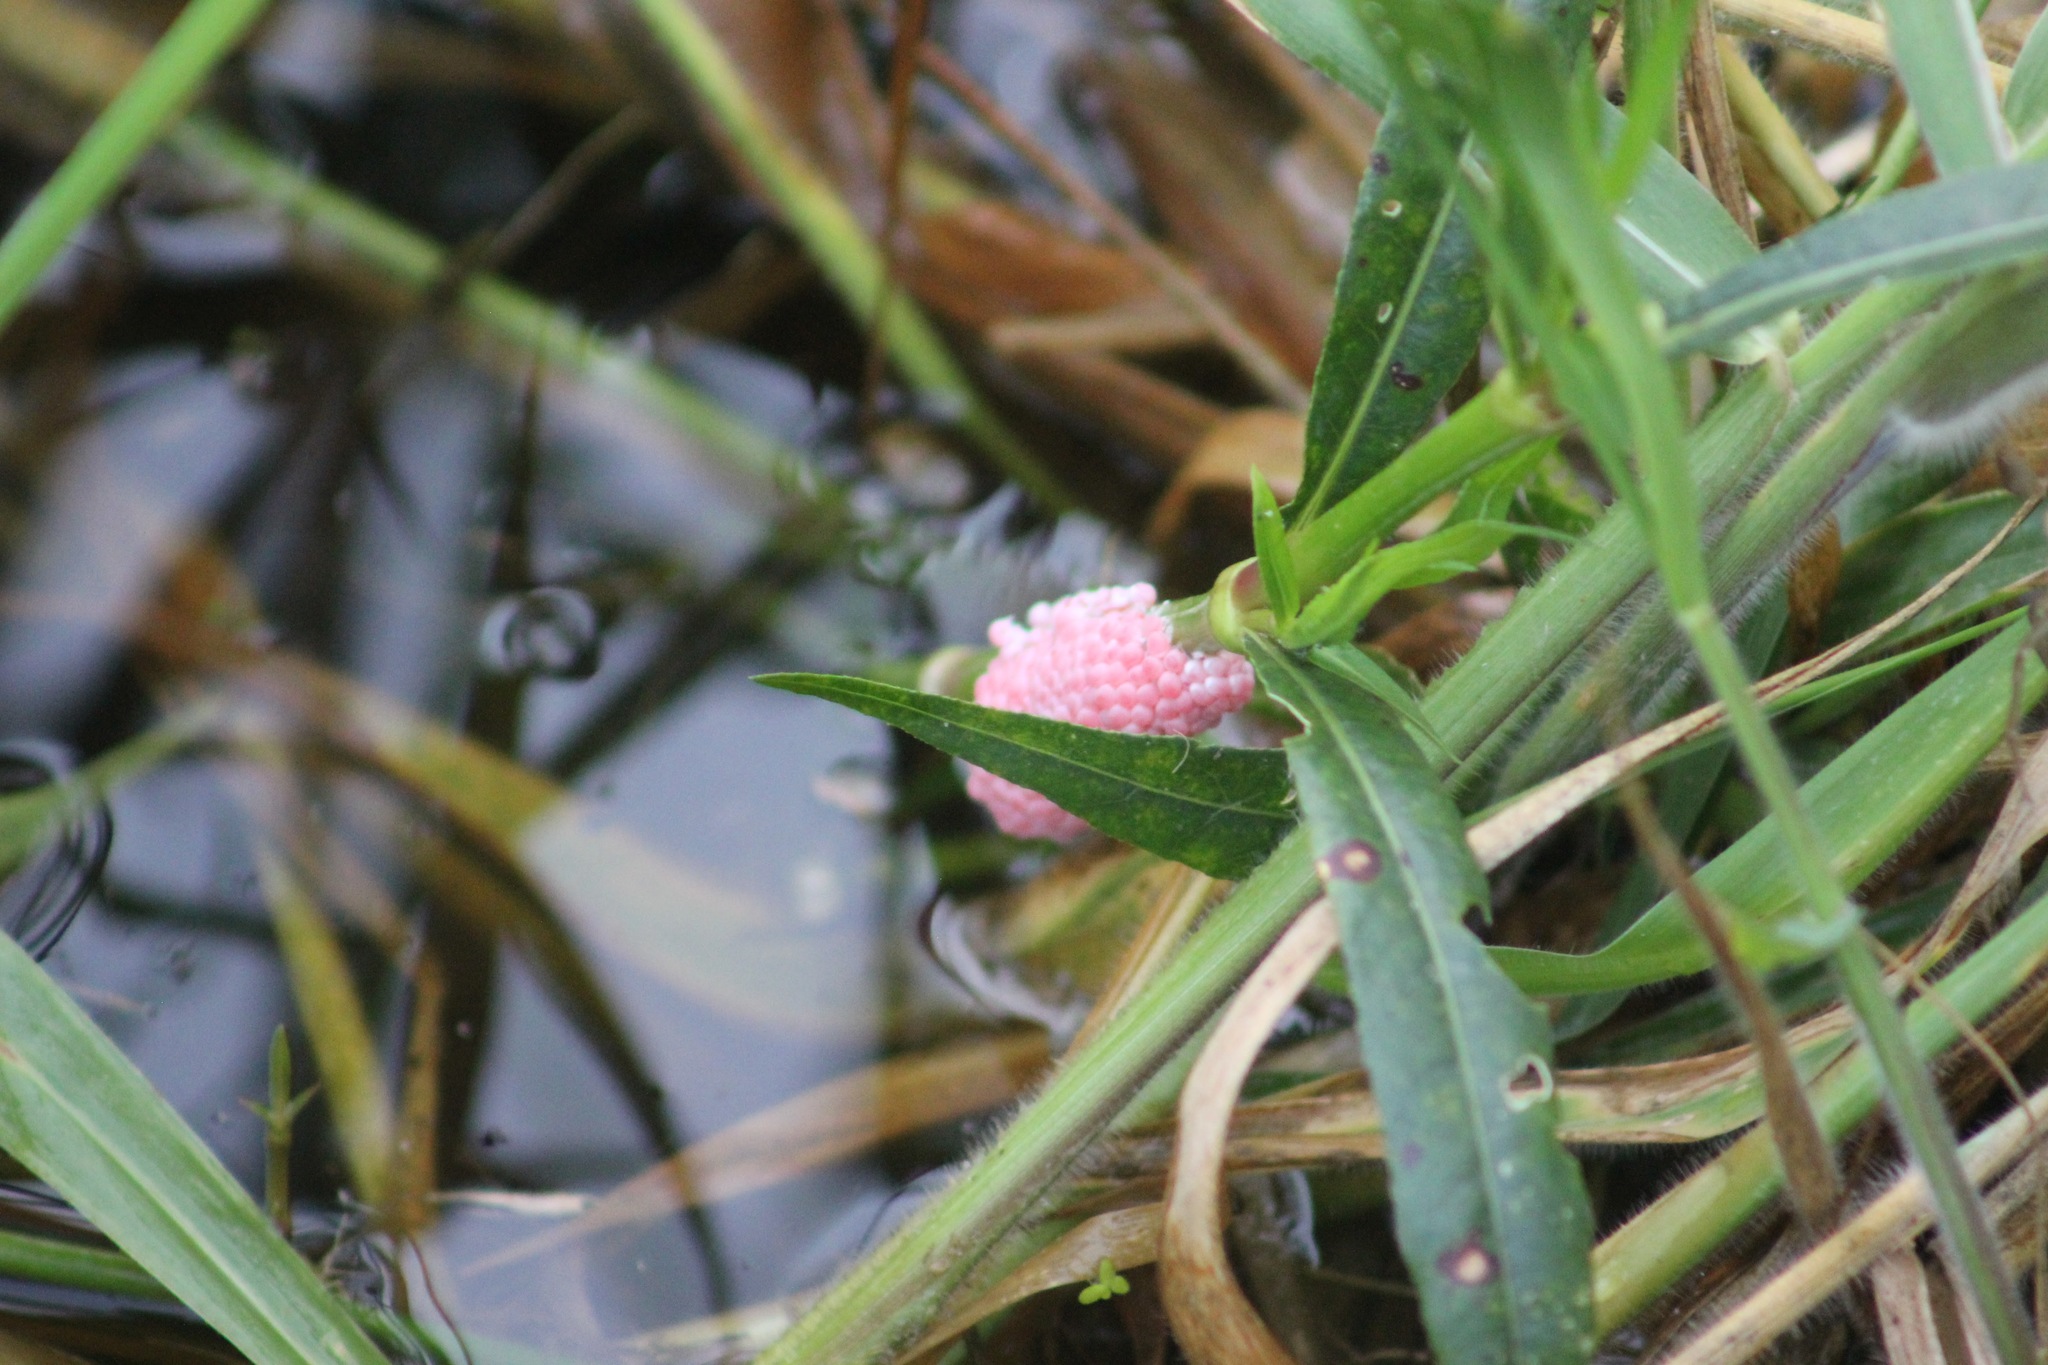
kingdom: Animalia
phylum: Mollusca
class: Gastropoda
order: Architaenioglossa
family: Ampullariidae
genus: Pomacea
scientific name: Pomacea canaliculata
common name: Channeled applesnail
